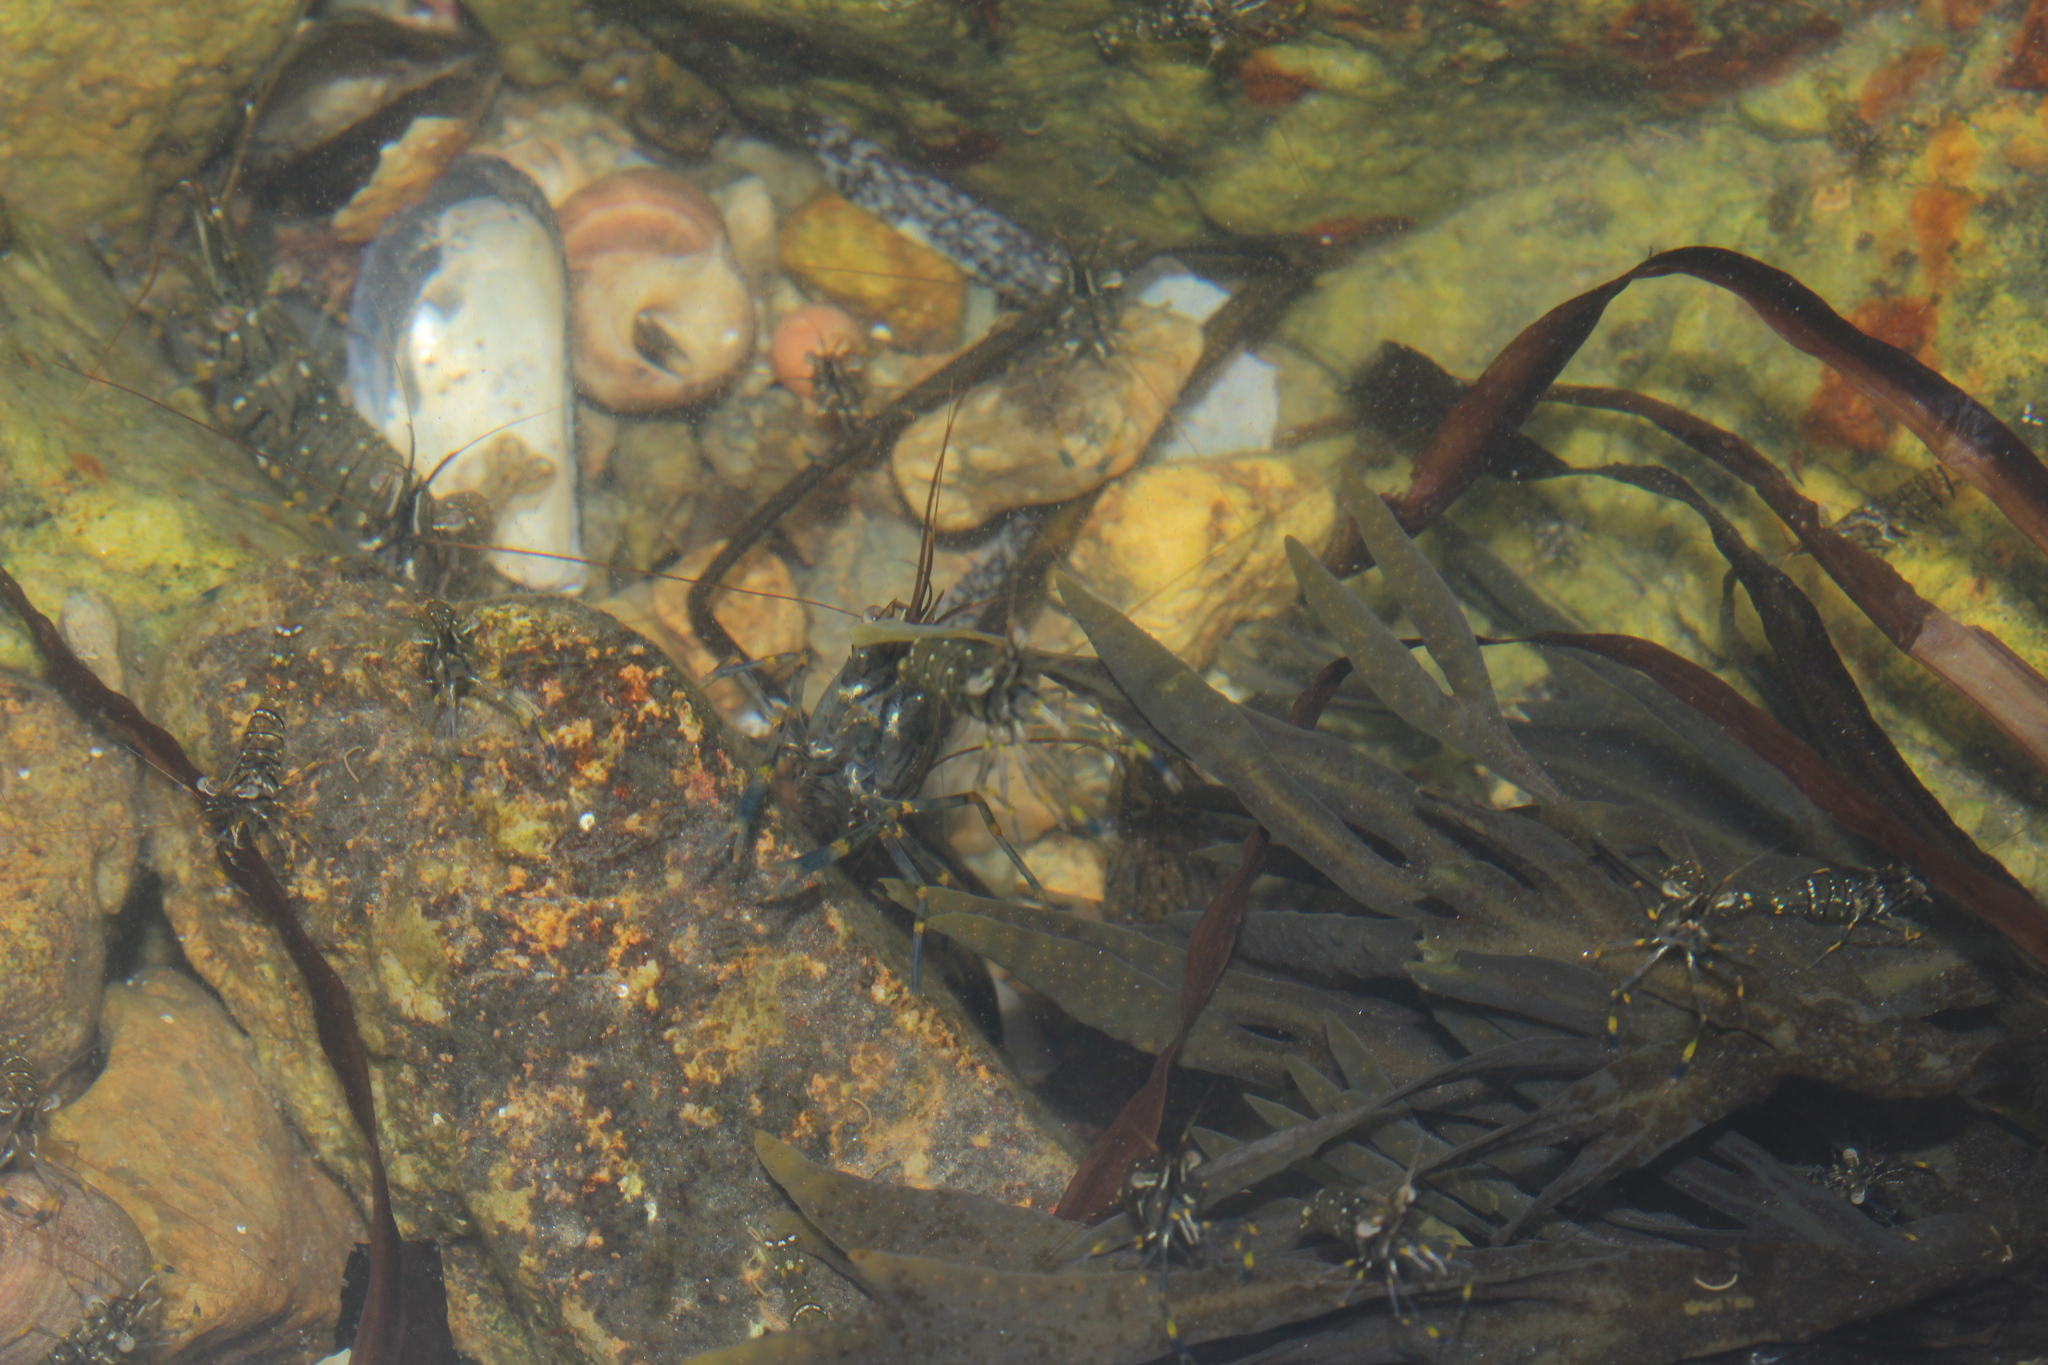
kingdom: Animalia
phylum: Arthropoda
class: Malacostraca
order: Decapoda
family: Palaemonidae
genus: Palaemon
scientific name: Palaemon elegans
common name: Grass prawm
